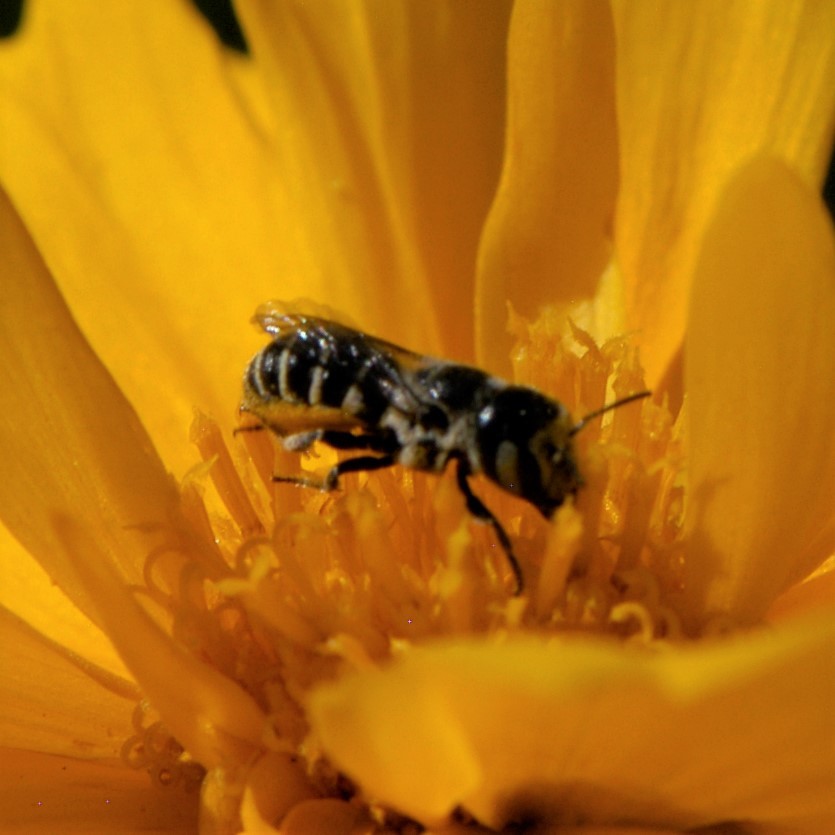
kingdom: Animalia
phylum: Arthropoda
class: Insecta
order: Hymenoptera
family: Megachilidae
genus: Ashmeadiella
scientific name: Ashmeadiella
